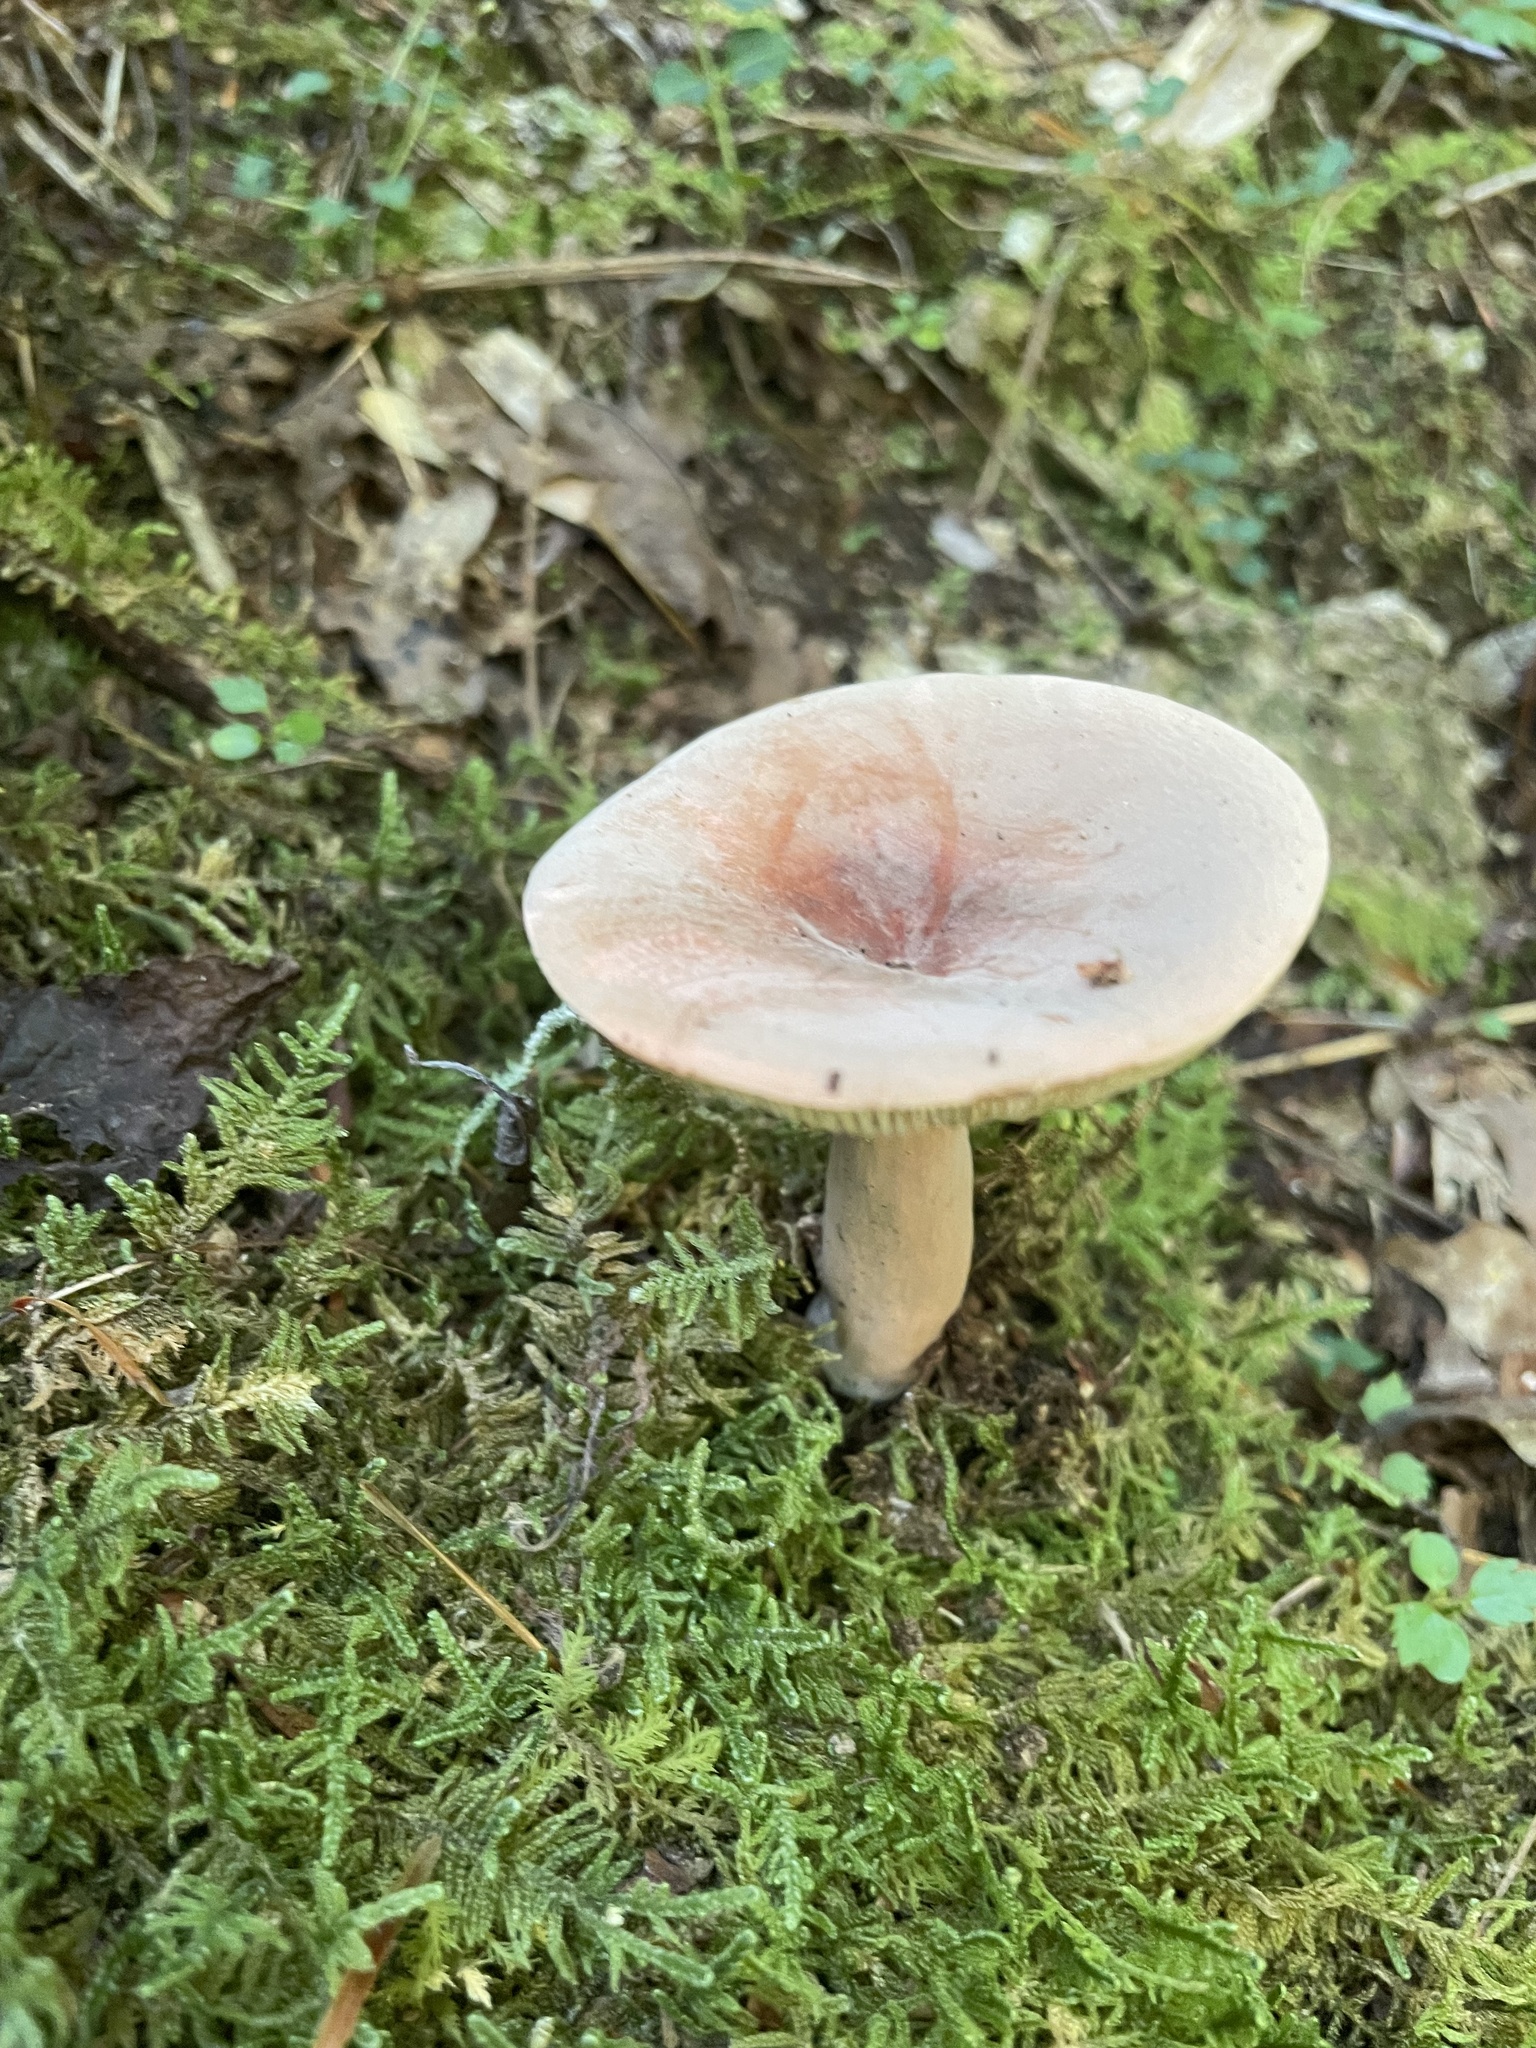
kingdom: Fungi
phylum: Basidiomycota
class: Agaricomycetes
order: Russulales
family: Russulaceae
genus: Lactarius
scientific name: Lactarius corrugis
